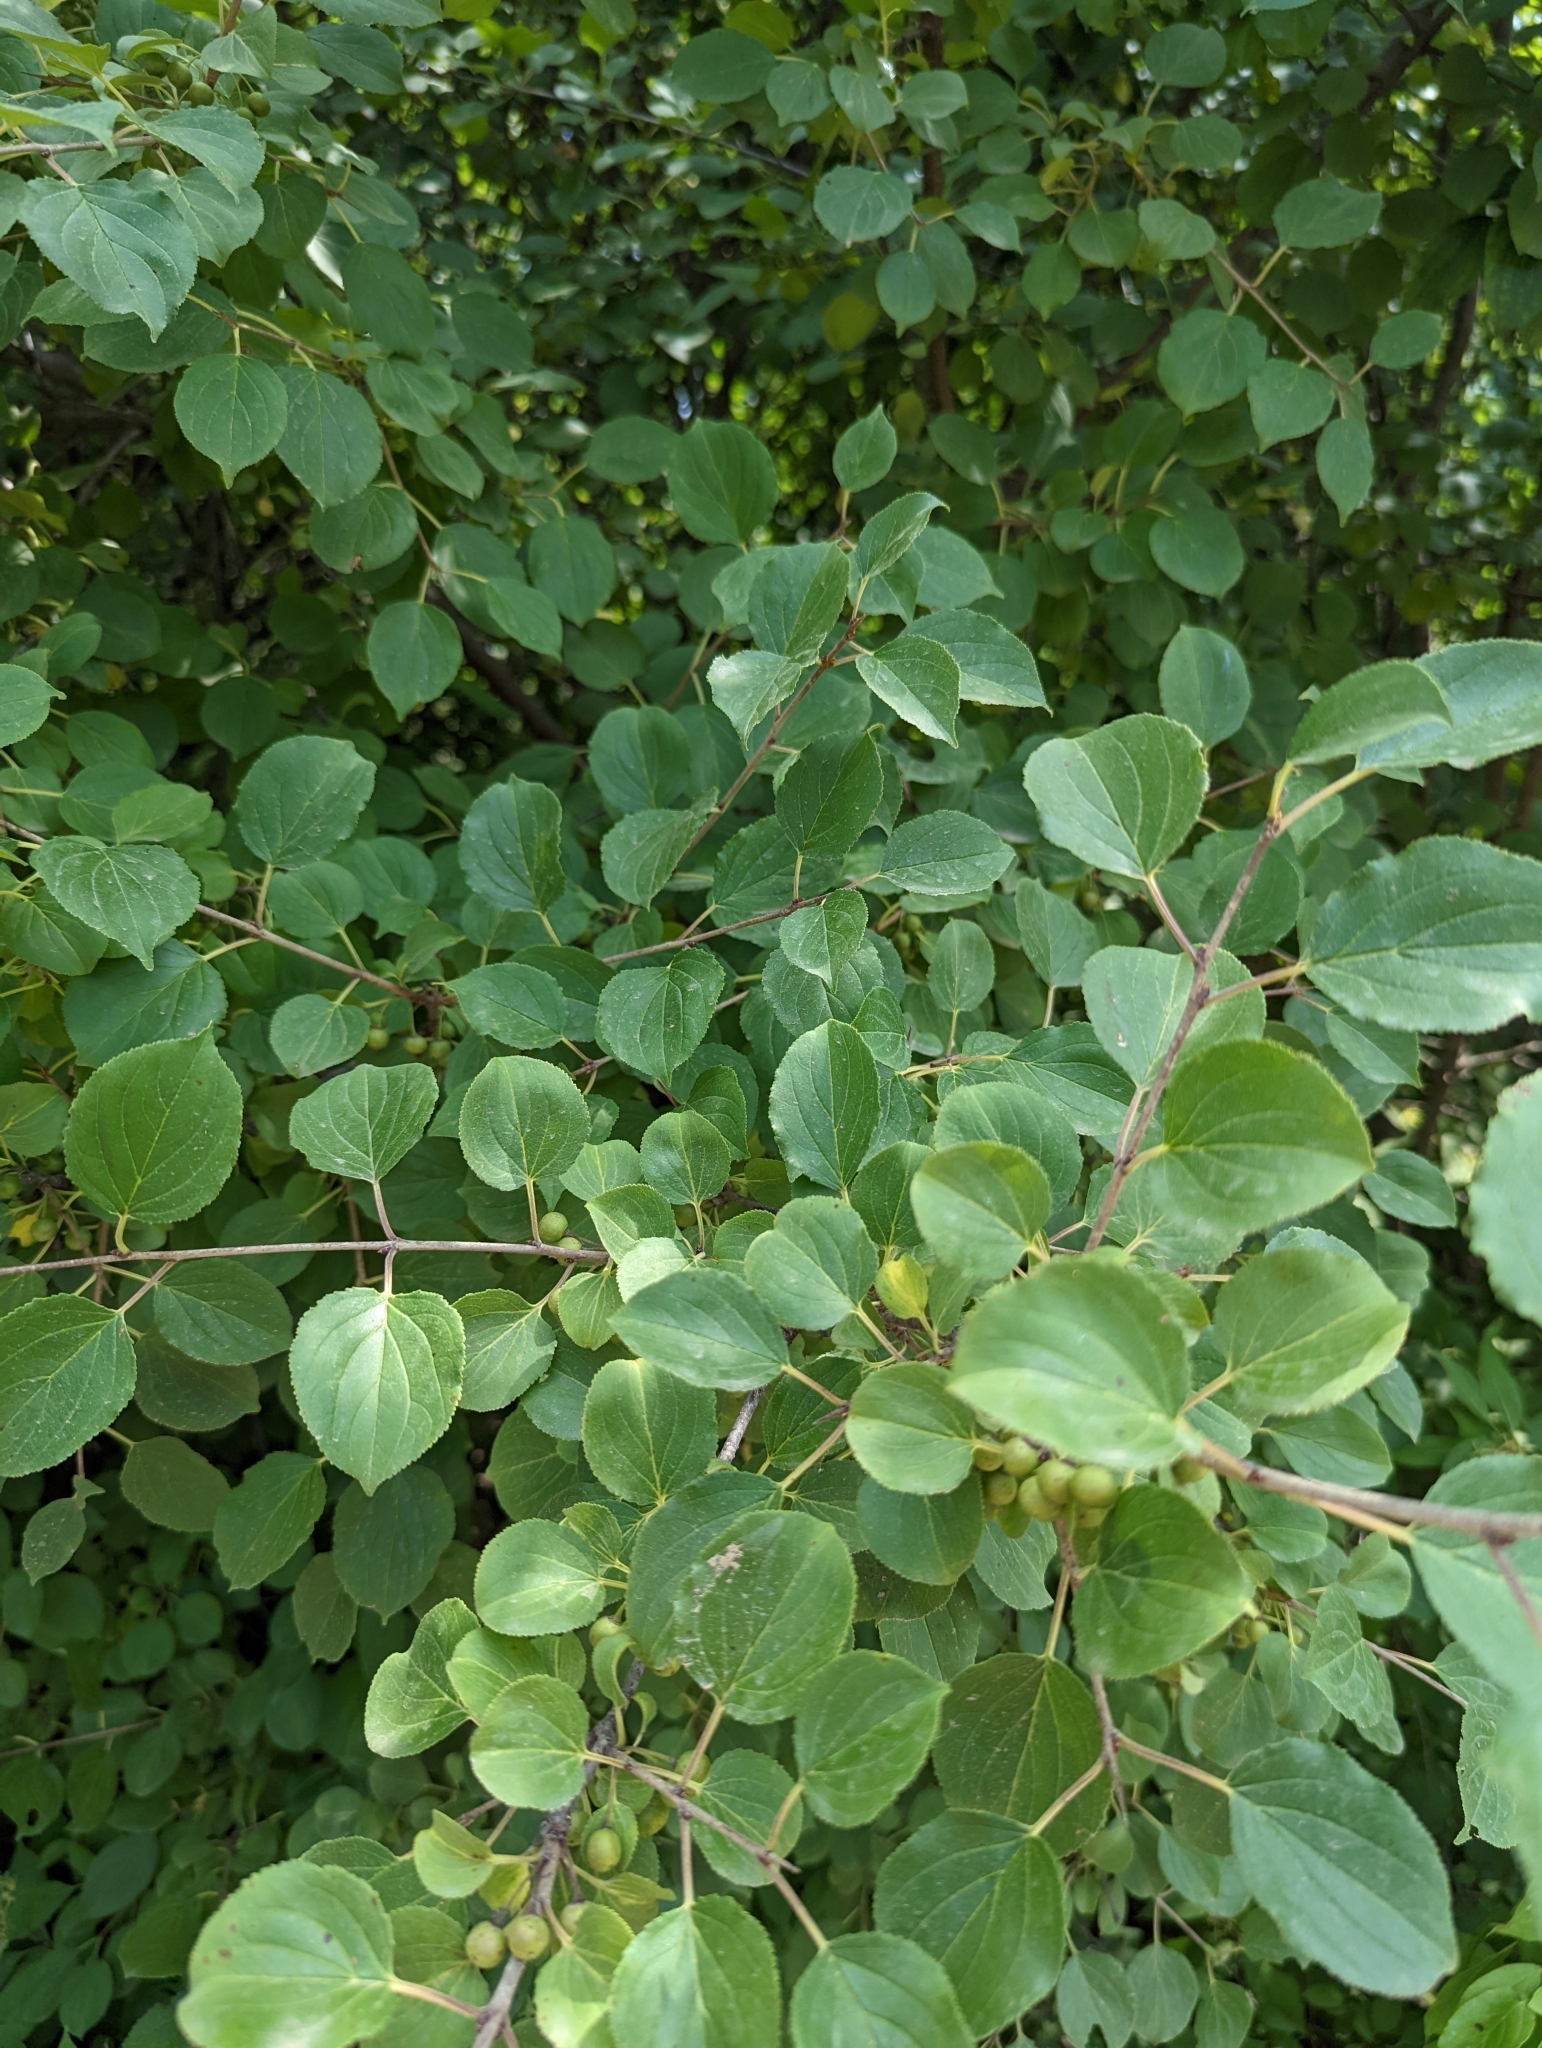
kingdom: Plantae
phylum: Tracheophyta
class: Magnoliopsida
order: Rosales
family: Rhamnaceae
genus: Rhamnus
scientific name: Rhamnus cathartica
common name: Common buckthorn
